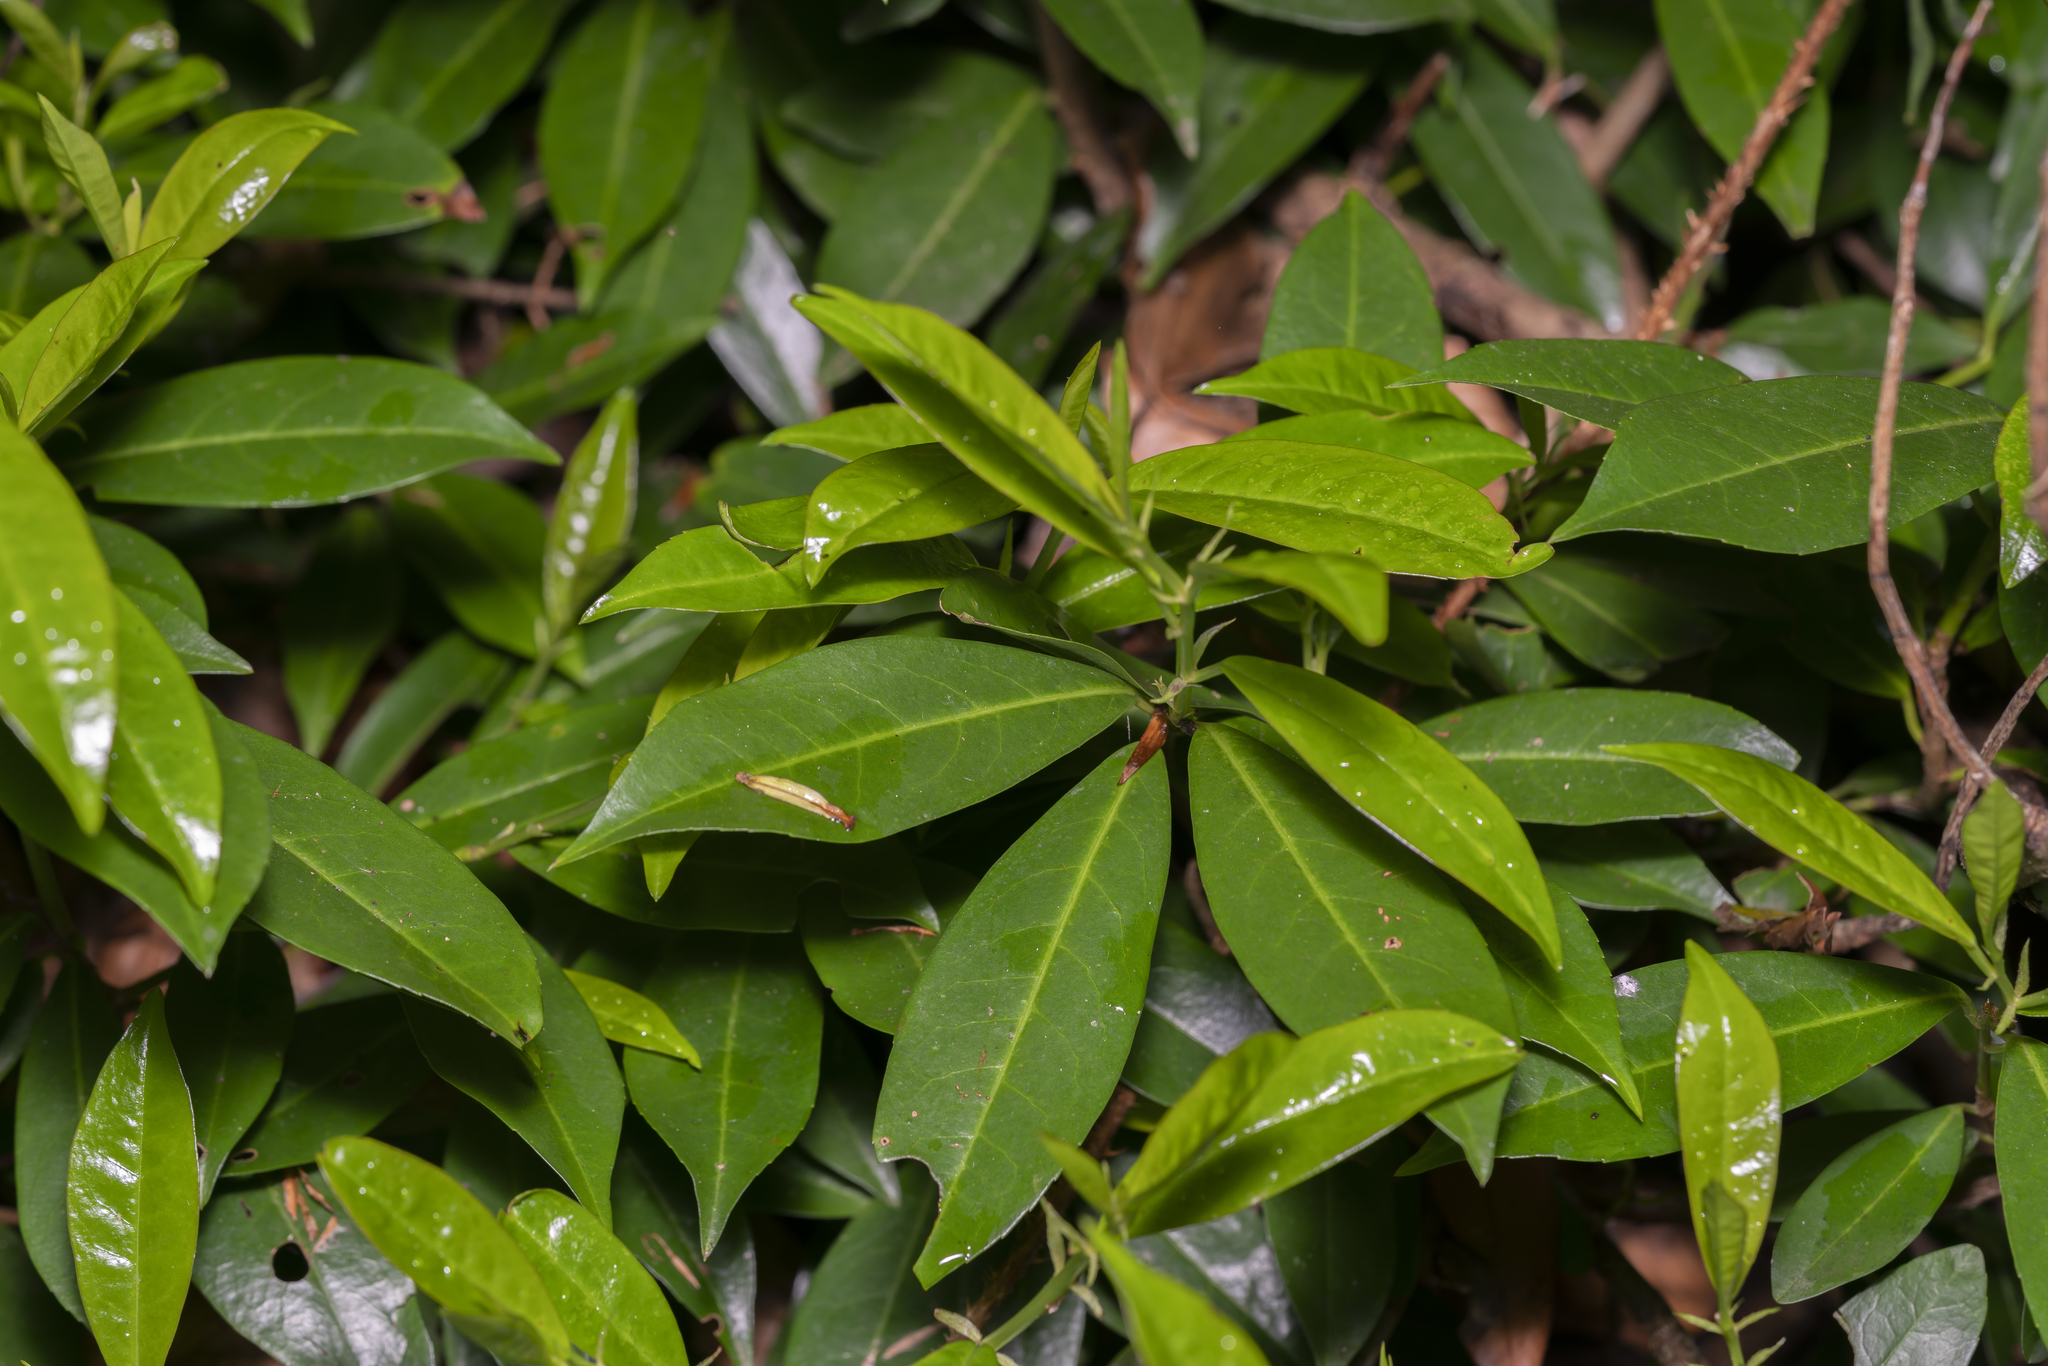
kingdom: Plantae
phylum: Tracheophyta
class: Magnoliopsida
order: Rosales
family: Rosaceae
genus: Prunus
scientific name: Prunus laurocerasus
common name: Cherry laurel
